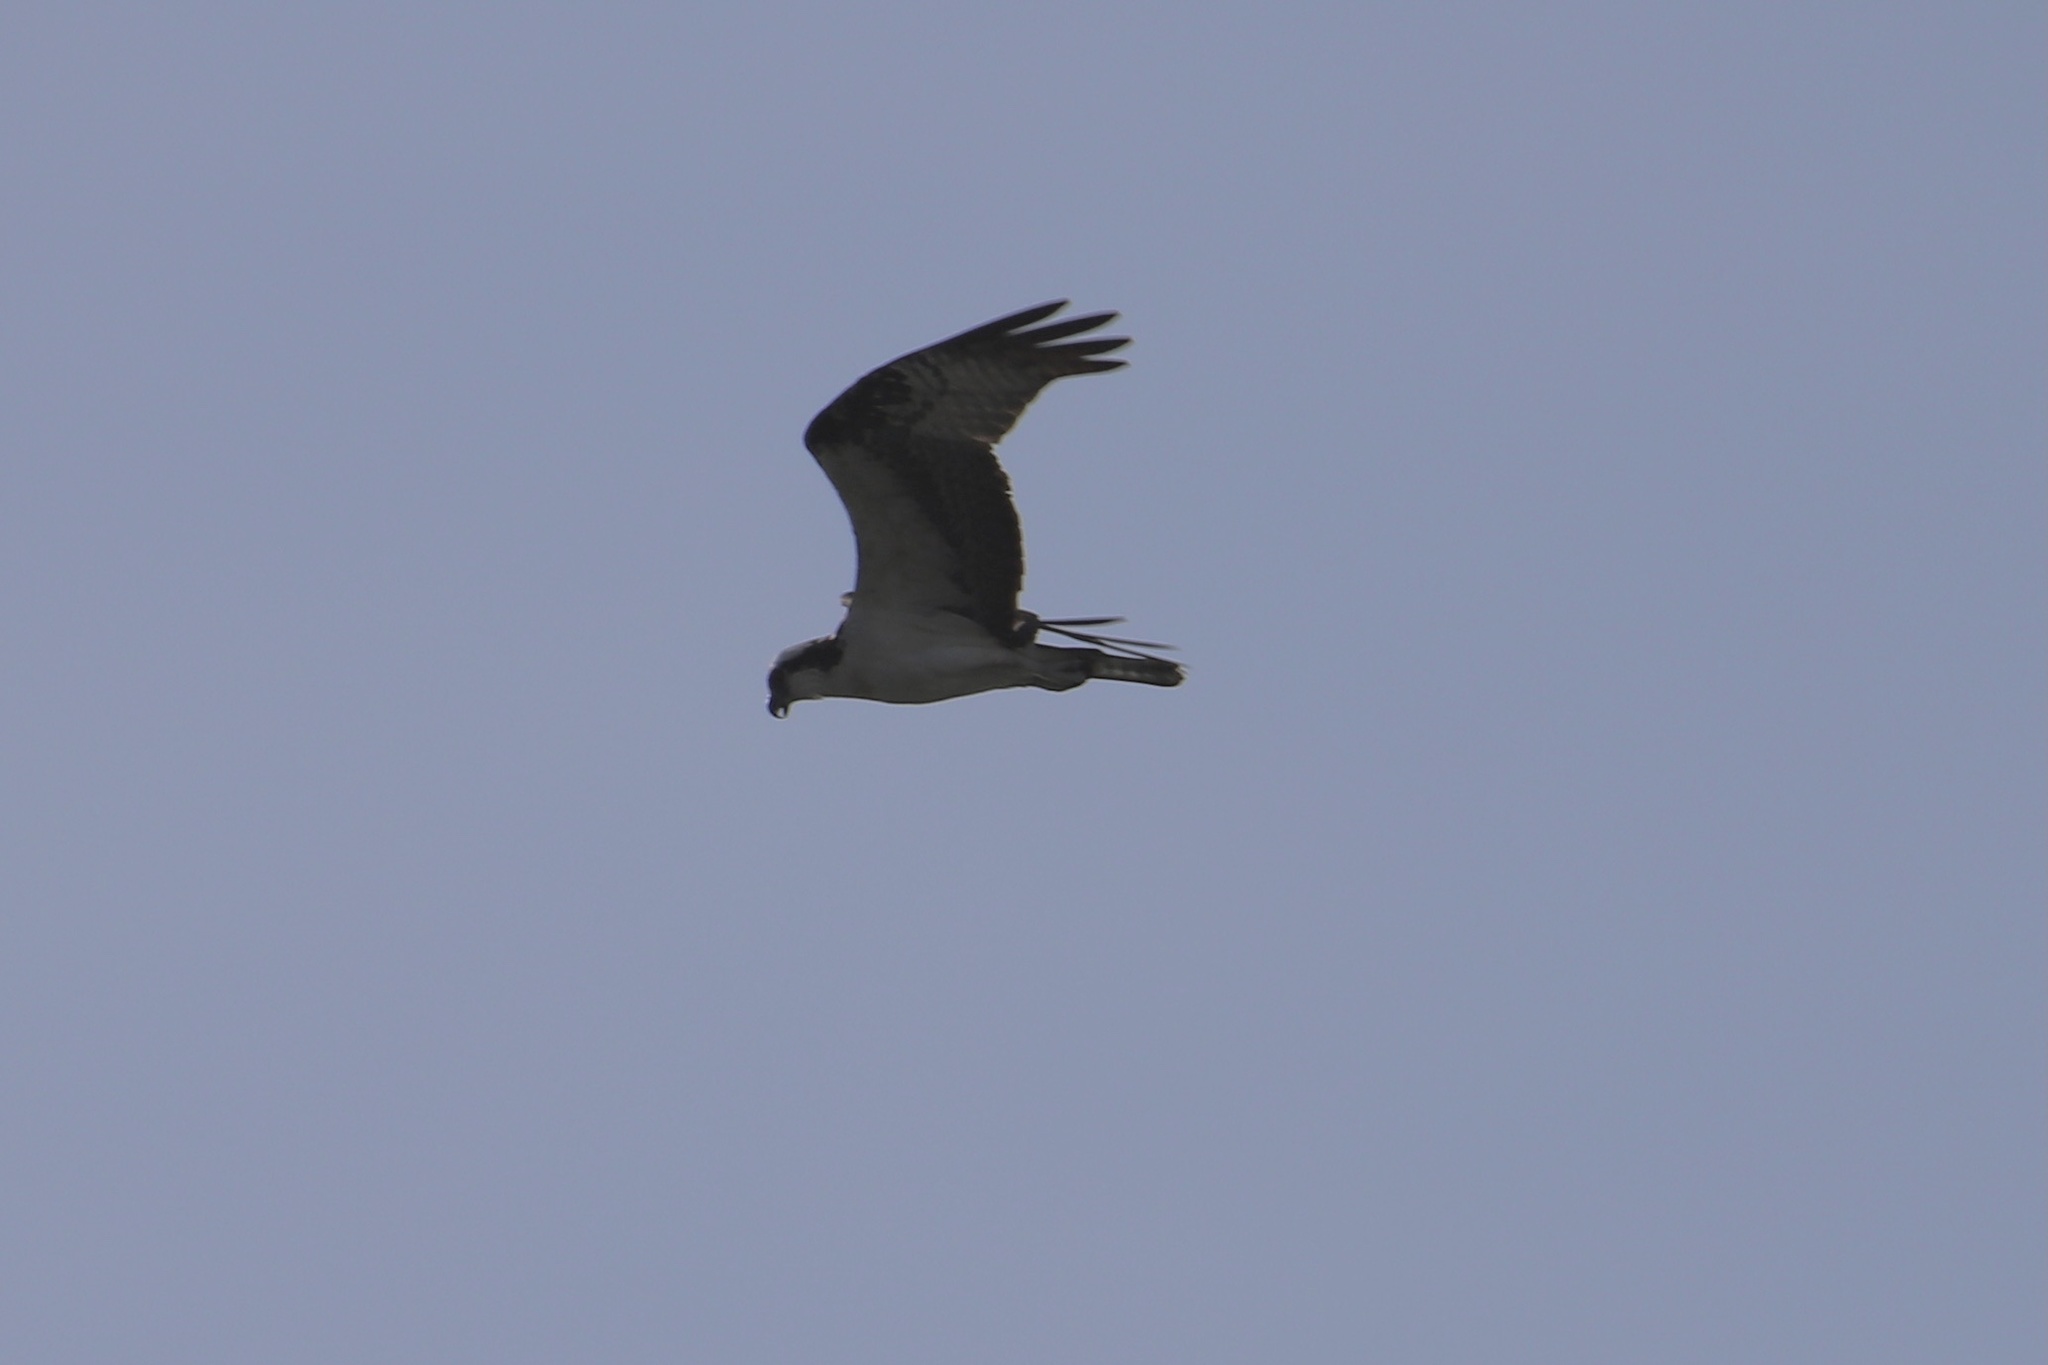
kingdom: Animalia
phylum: Chordata
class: Aves
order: Accipitriformes
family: Pandionidae
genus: Pandion
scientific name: Pandion haliaetus
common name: Osprey
